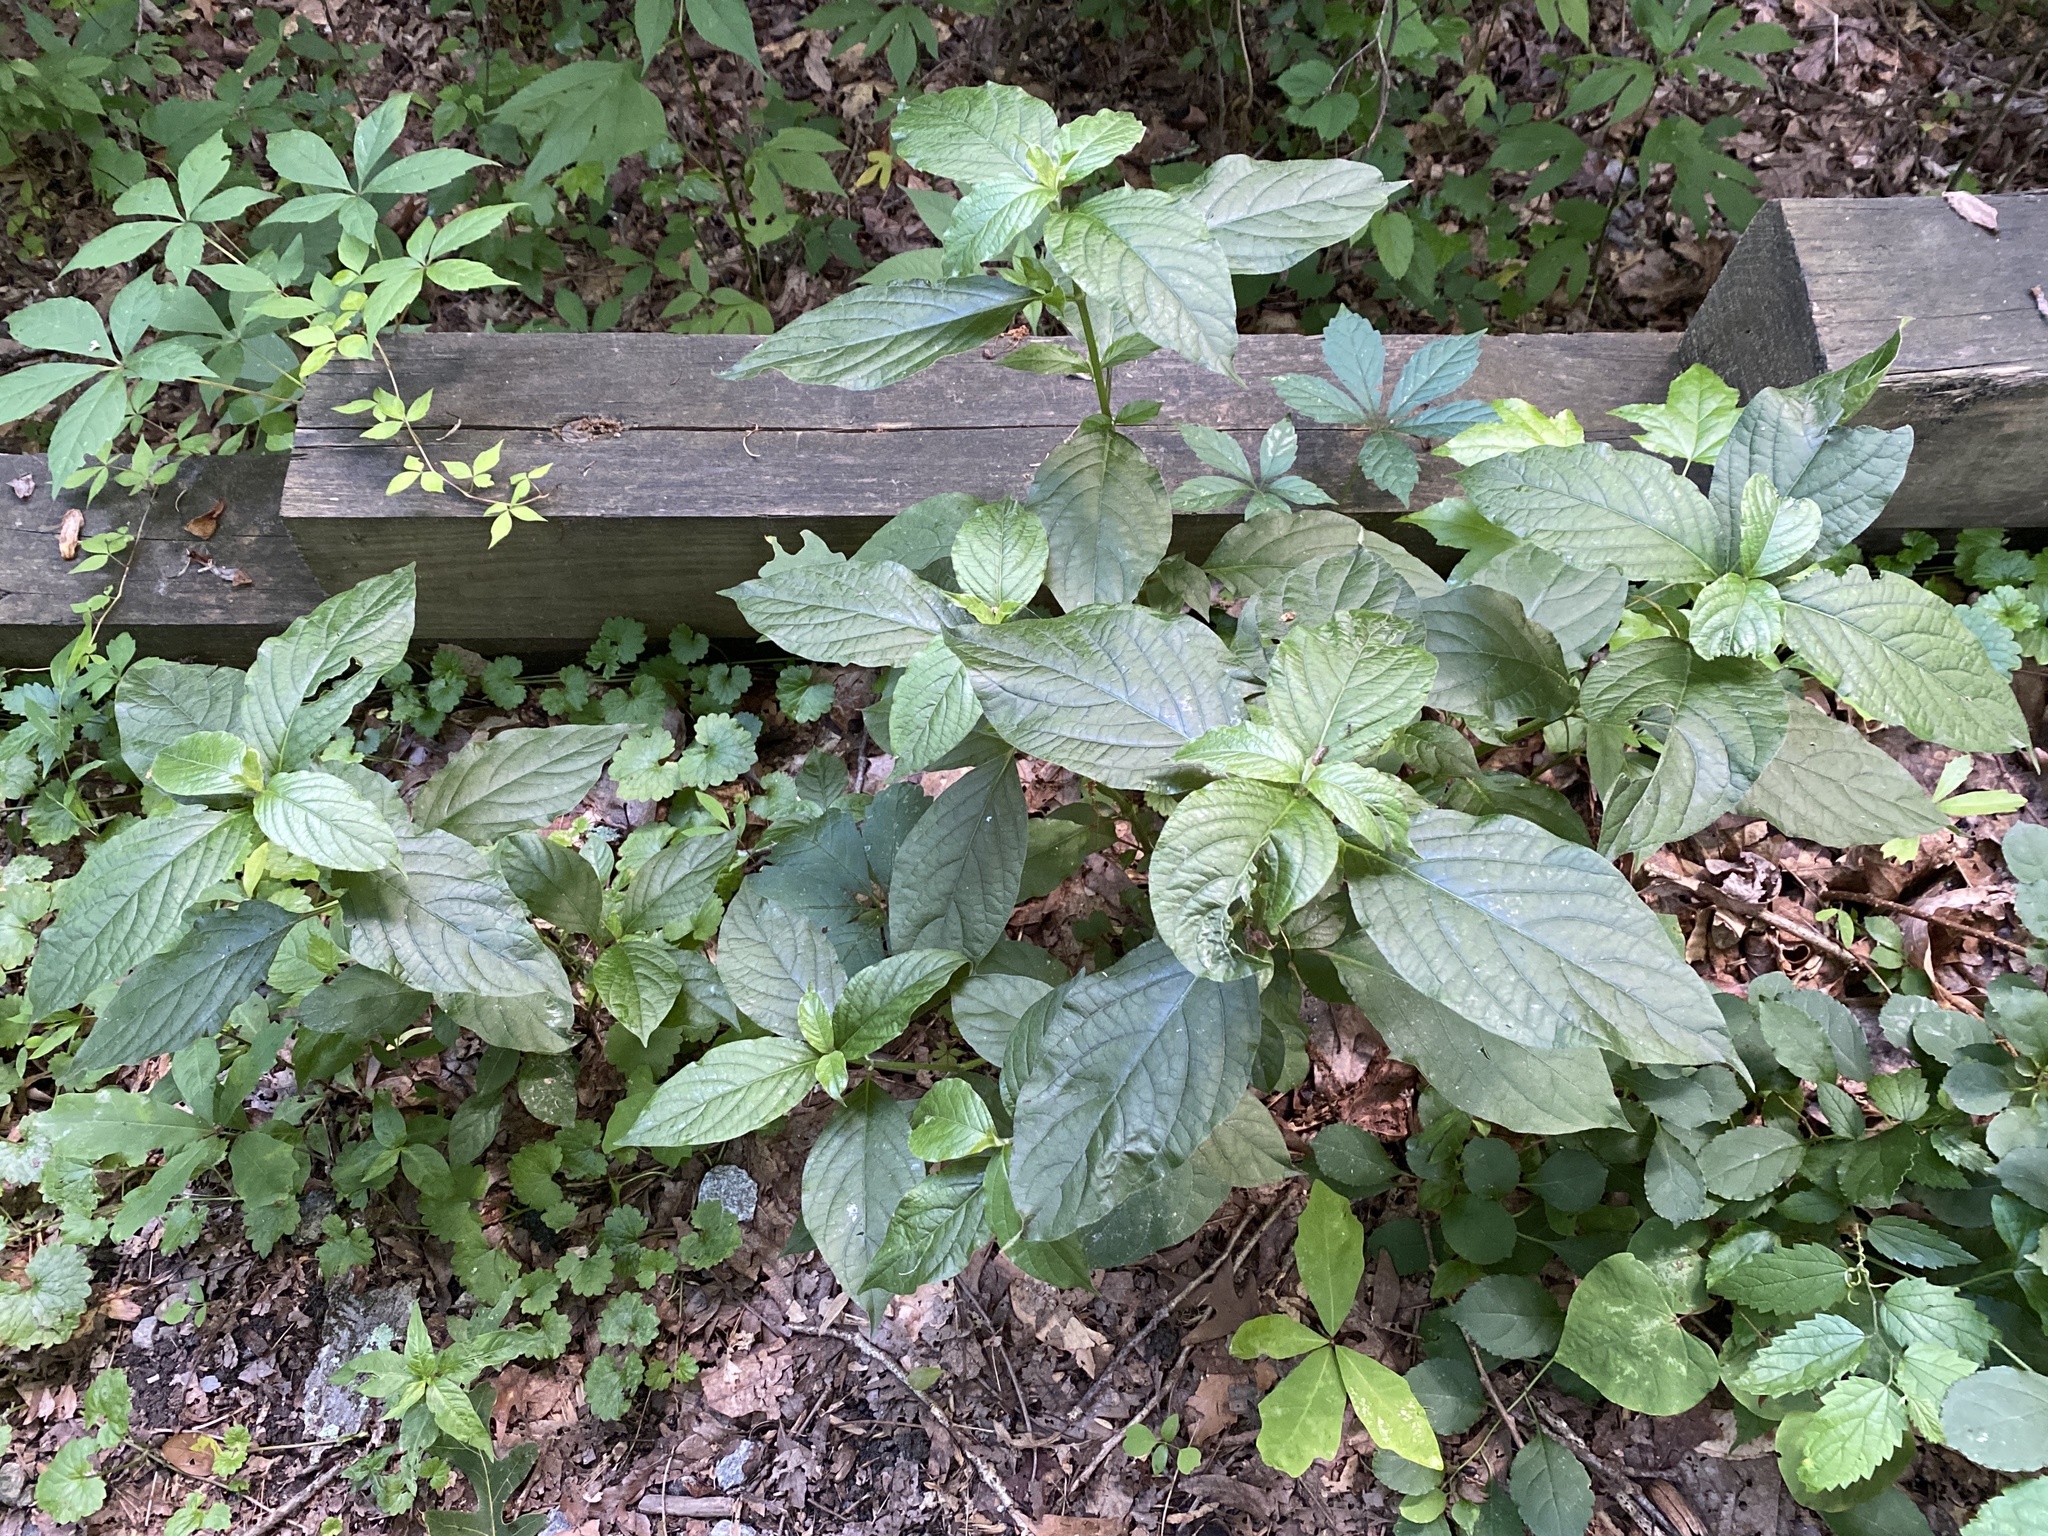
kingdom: Plantae
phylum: Tracheophyta
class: Magnoliopsida
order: Caryophyllales
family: Amaranthaceae
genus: Achyranthes
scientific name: Achyranthes bidentata
